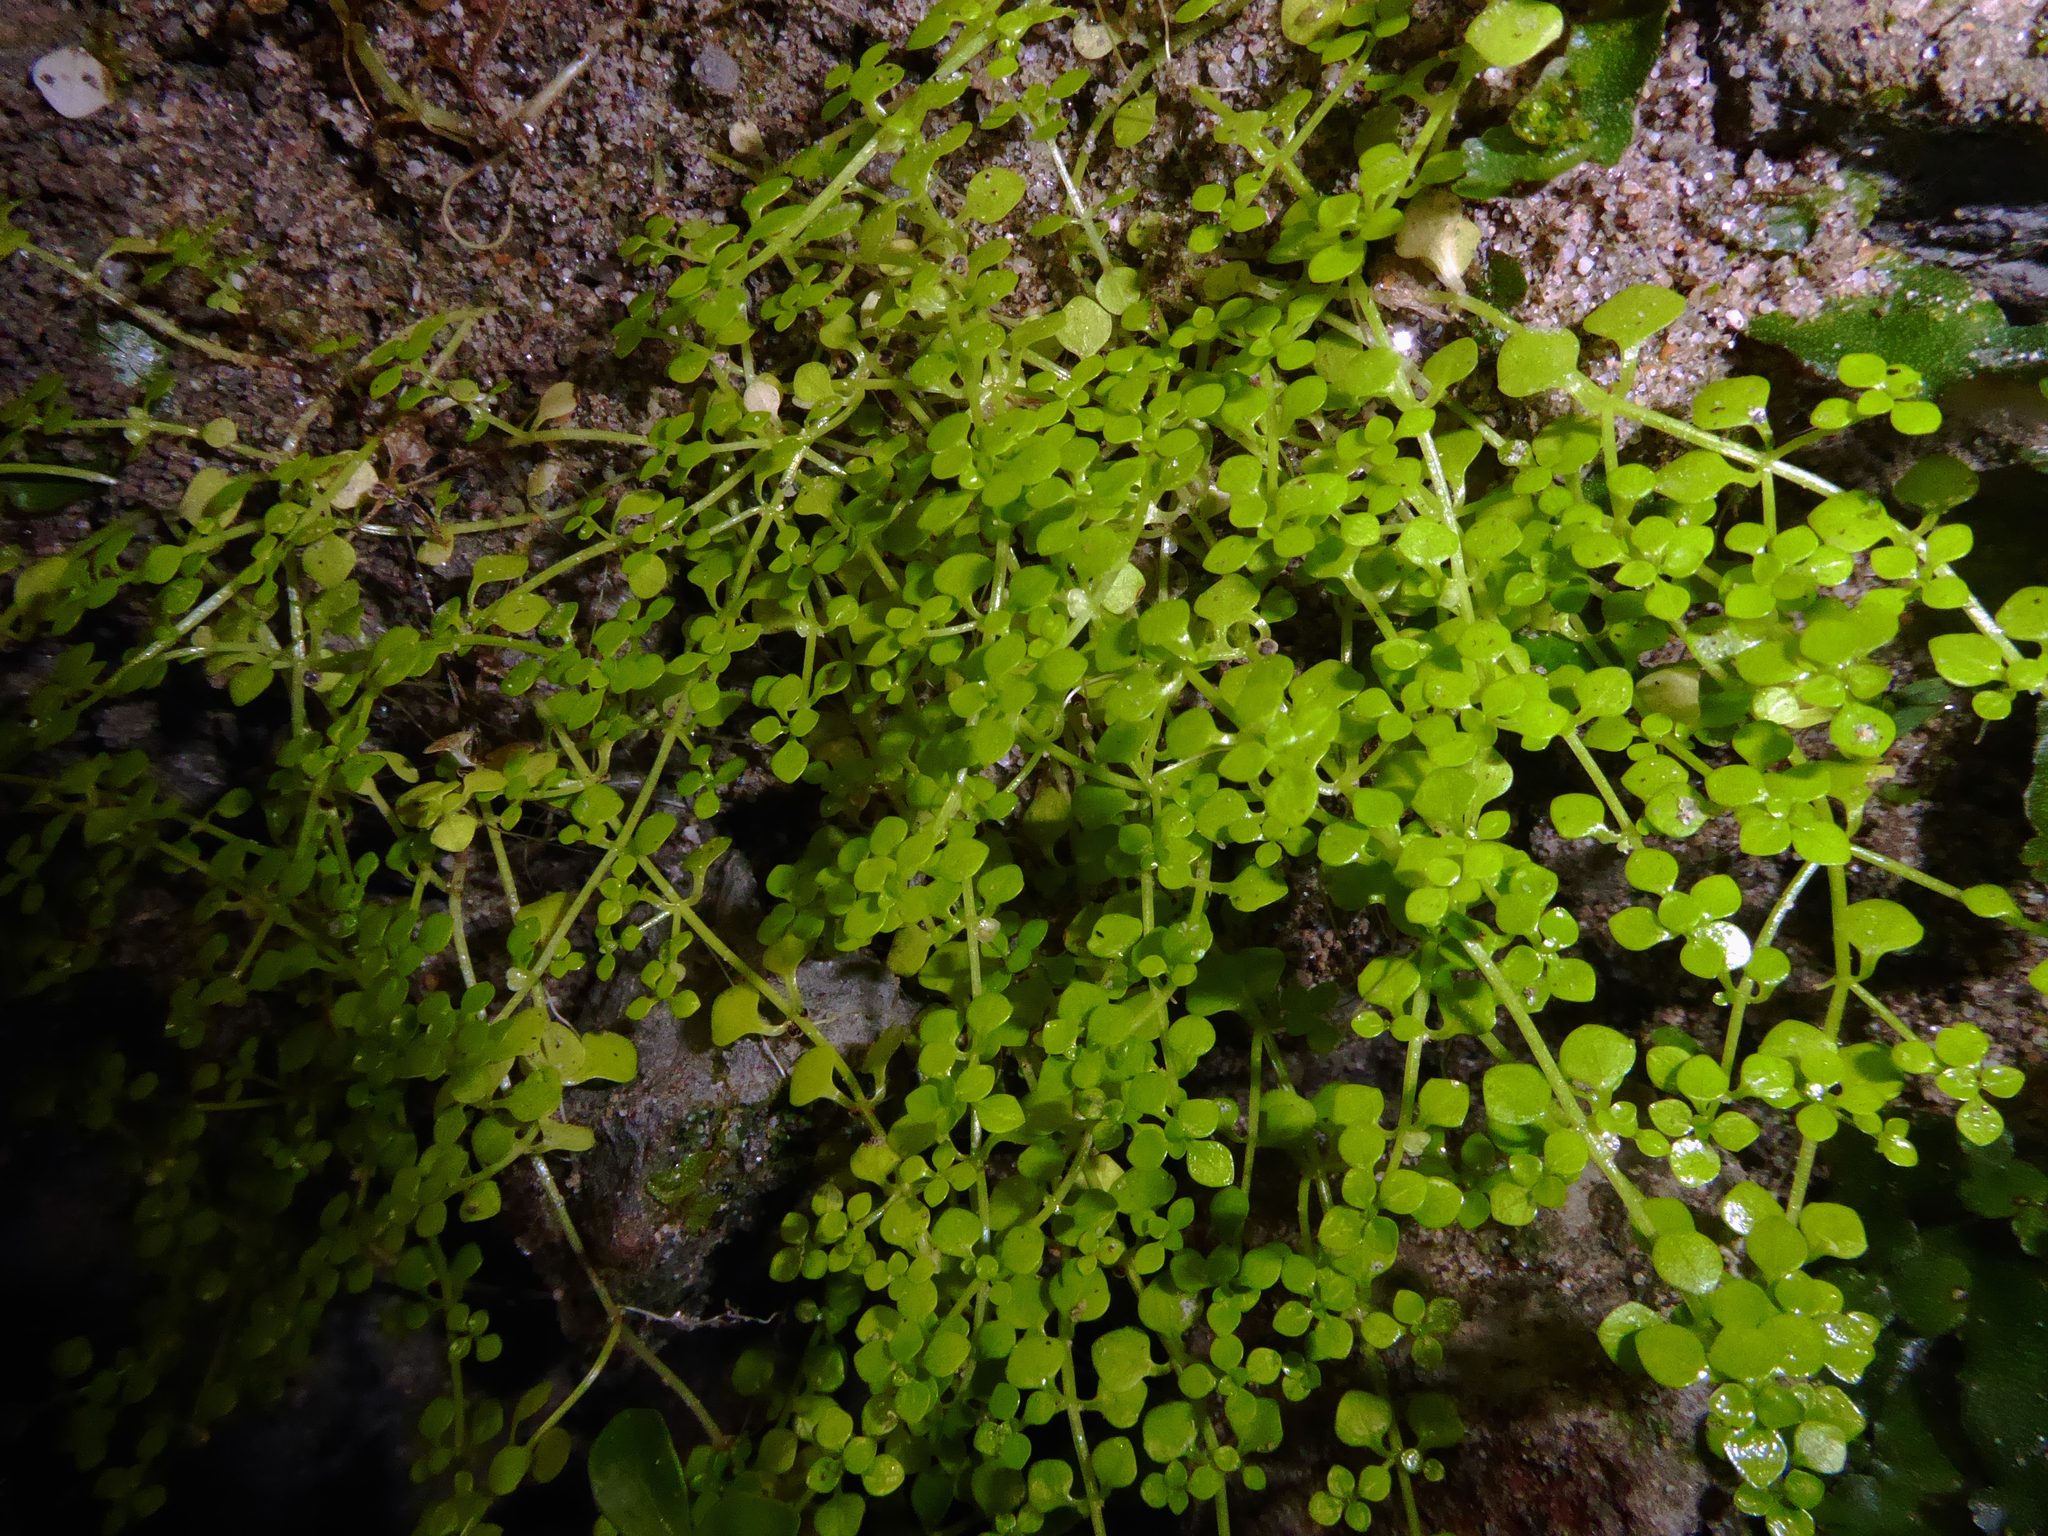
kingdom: Plantae
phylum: Tracheophyta
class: Magnoliopsida
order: Lamiales
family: Plantaginaceae
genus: Callitriche
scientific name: Callitriche muelleri
